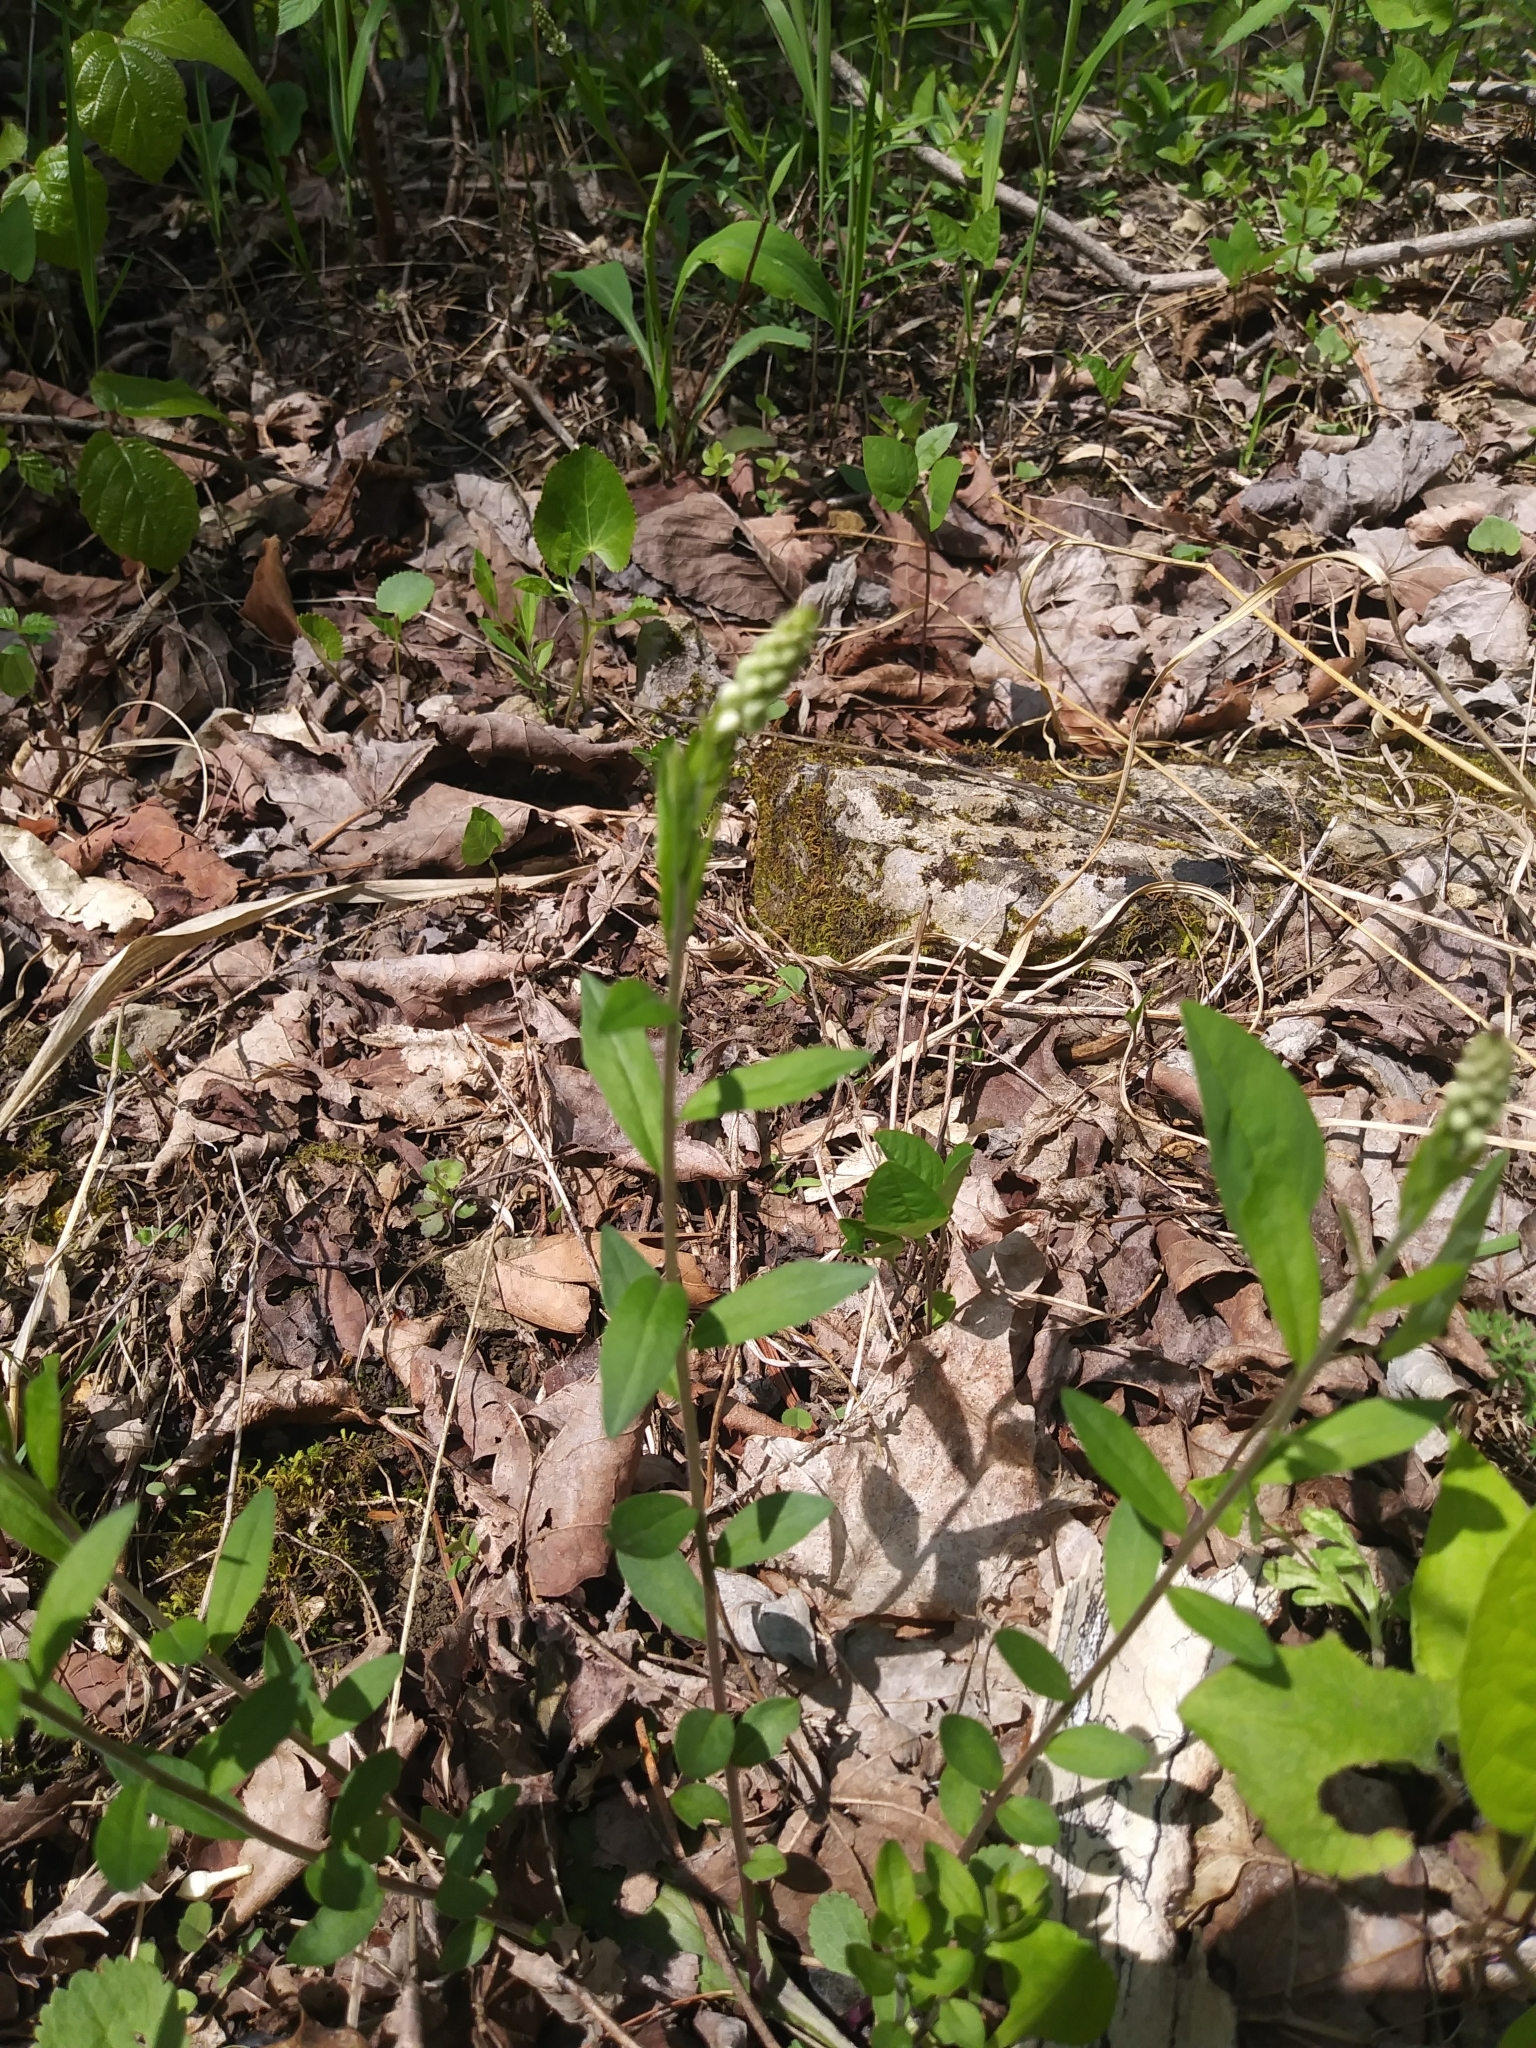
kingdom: Plantae
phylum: Tracheophyta
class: Magnoliopsida
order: Fabales
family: Polygalaceae
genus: Polygala
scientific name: Polygala senega
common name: Seneca snakeroot
